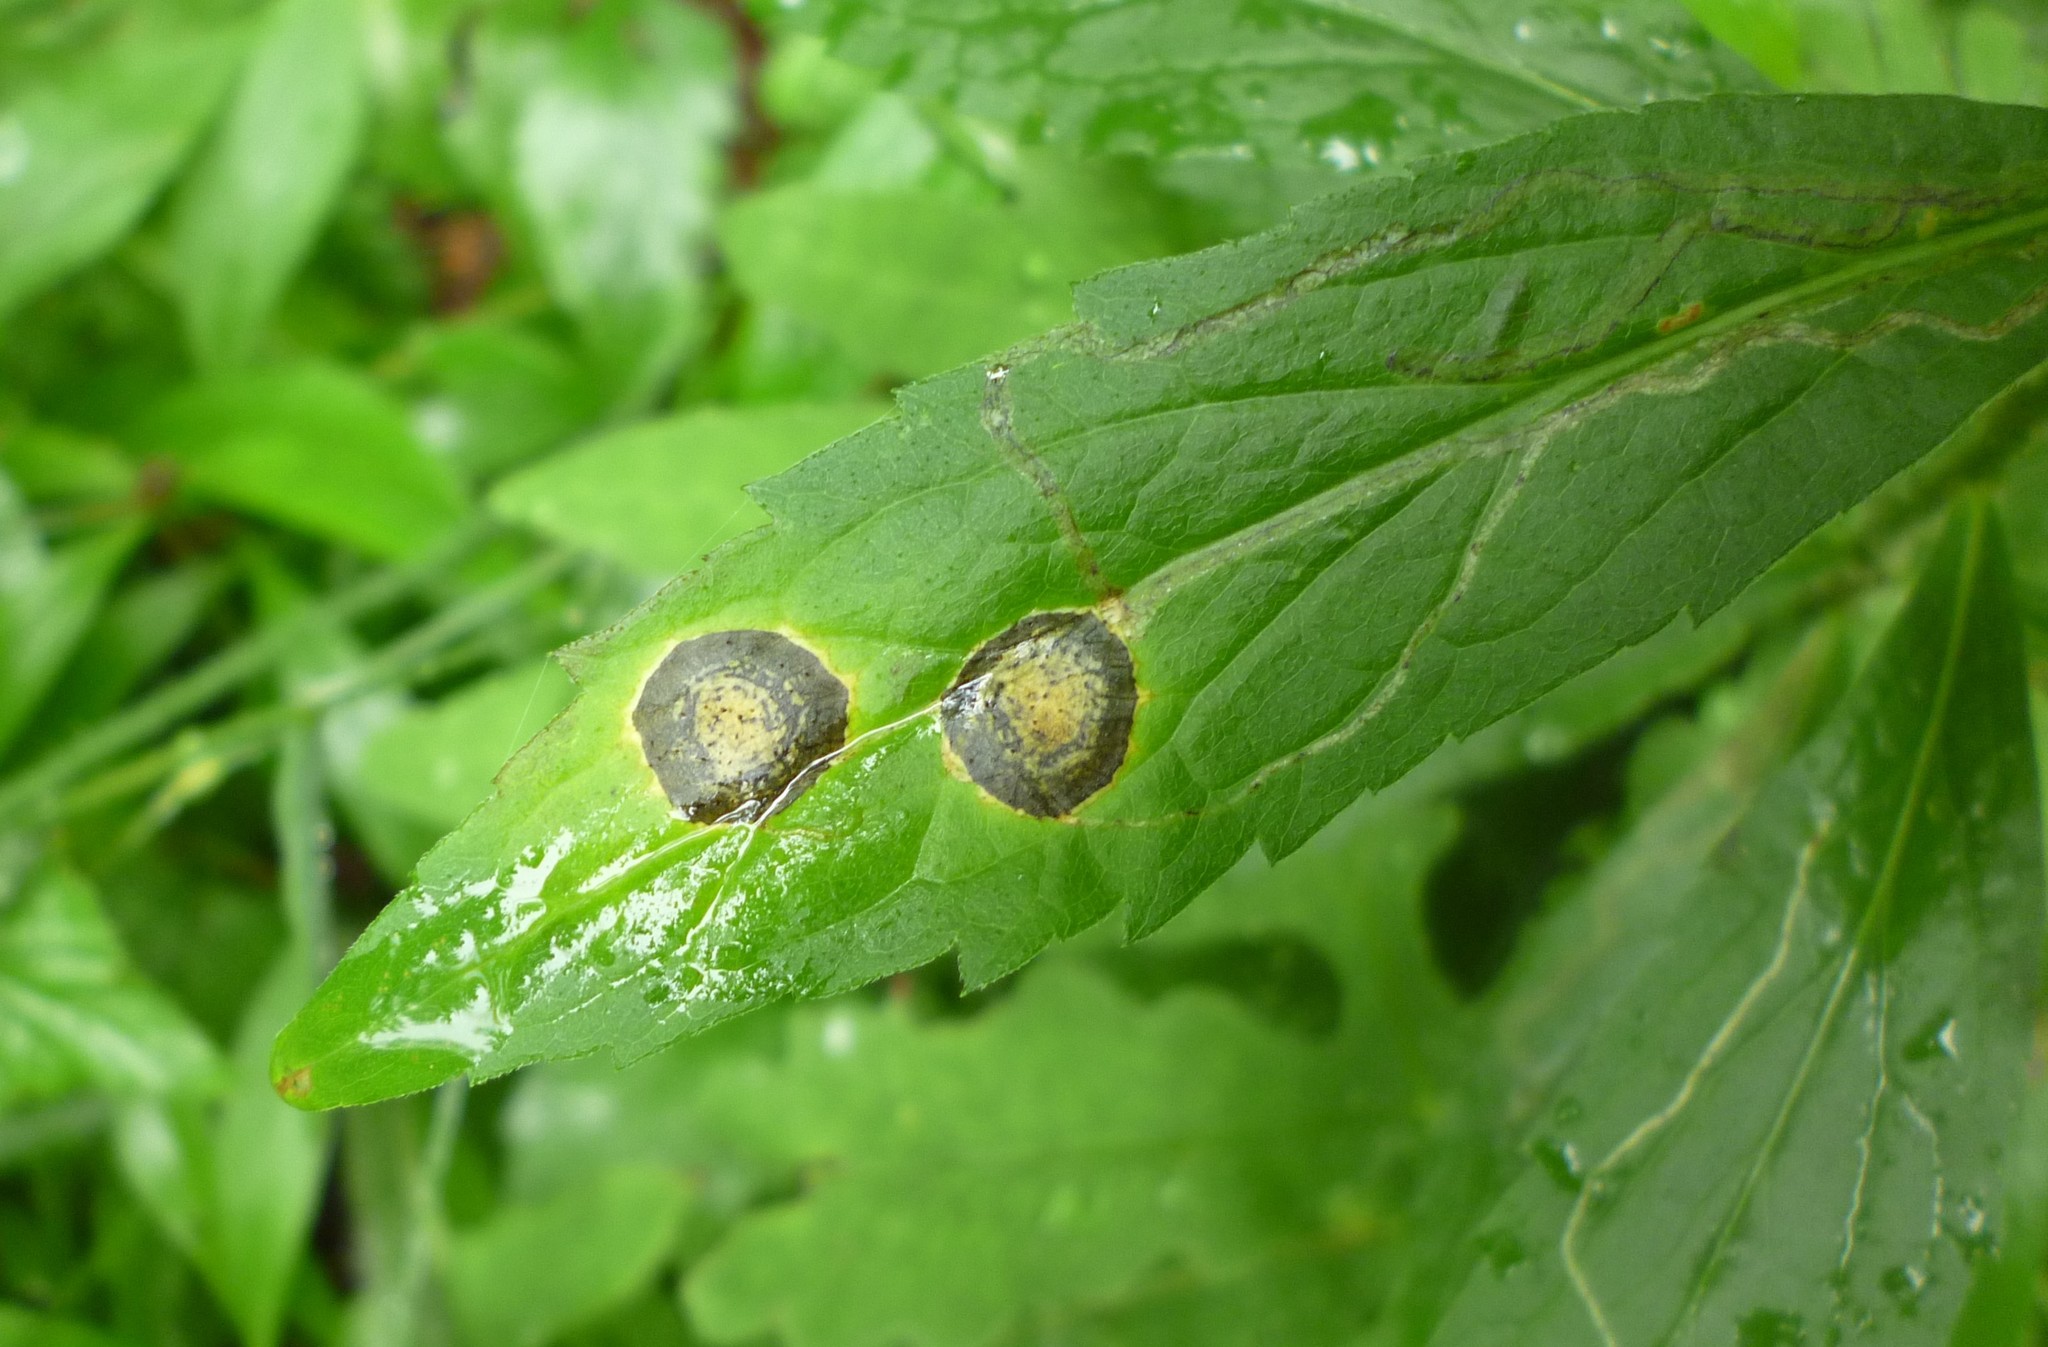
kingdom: Animalia
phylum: Arthropoda
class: Insecta
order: Diptera
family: Cecidomyiidae
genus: Asteromyia
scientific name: Asteromyia carbonifera
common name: Carbonifera goldenrod gall midge
